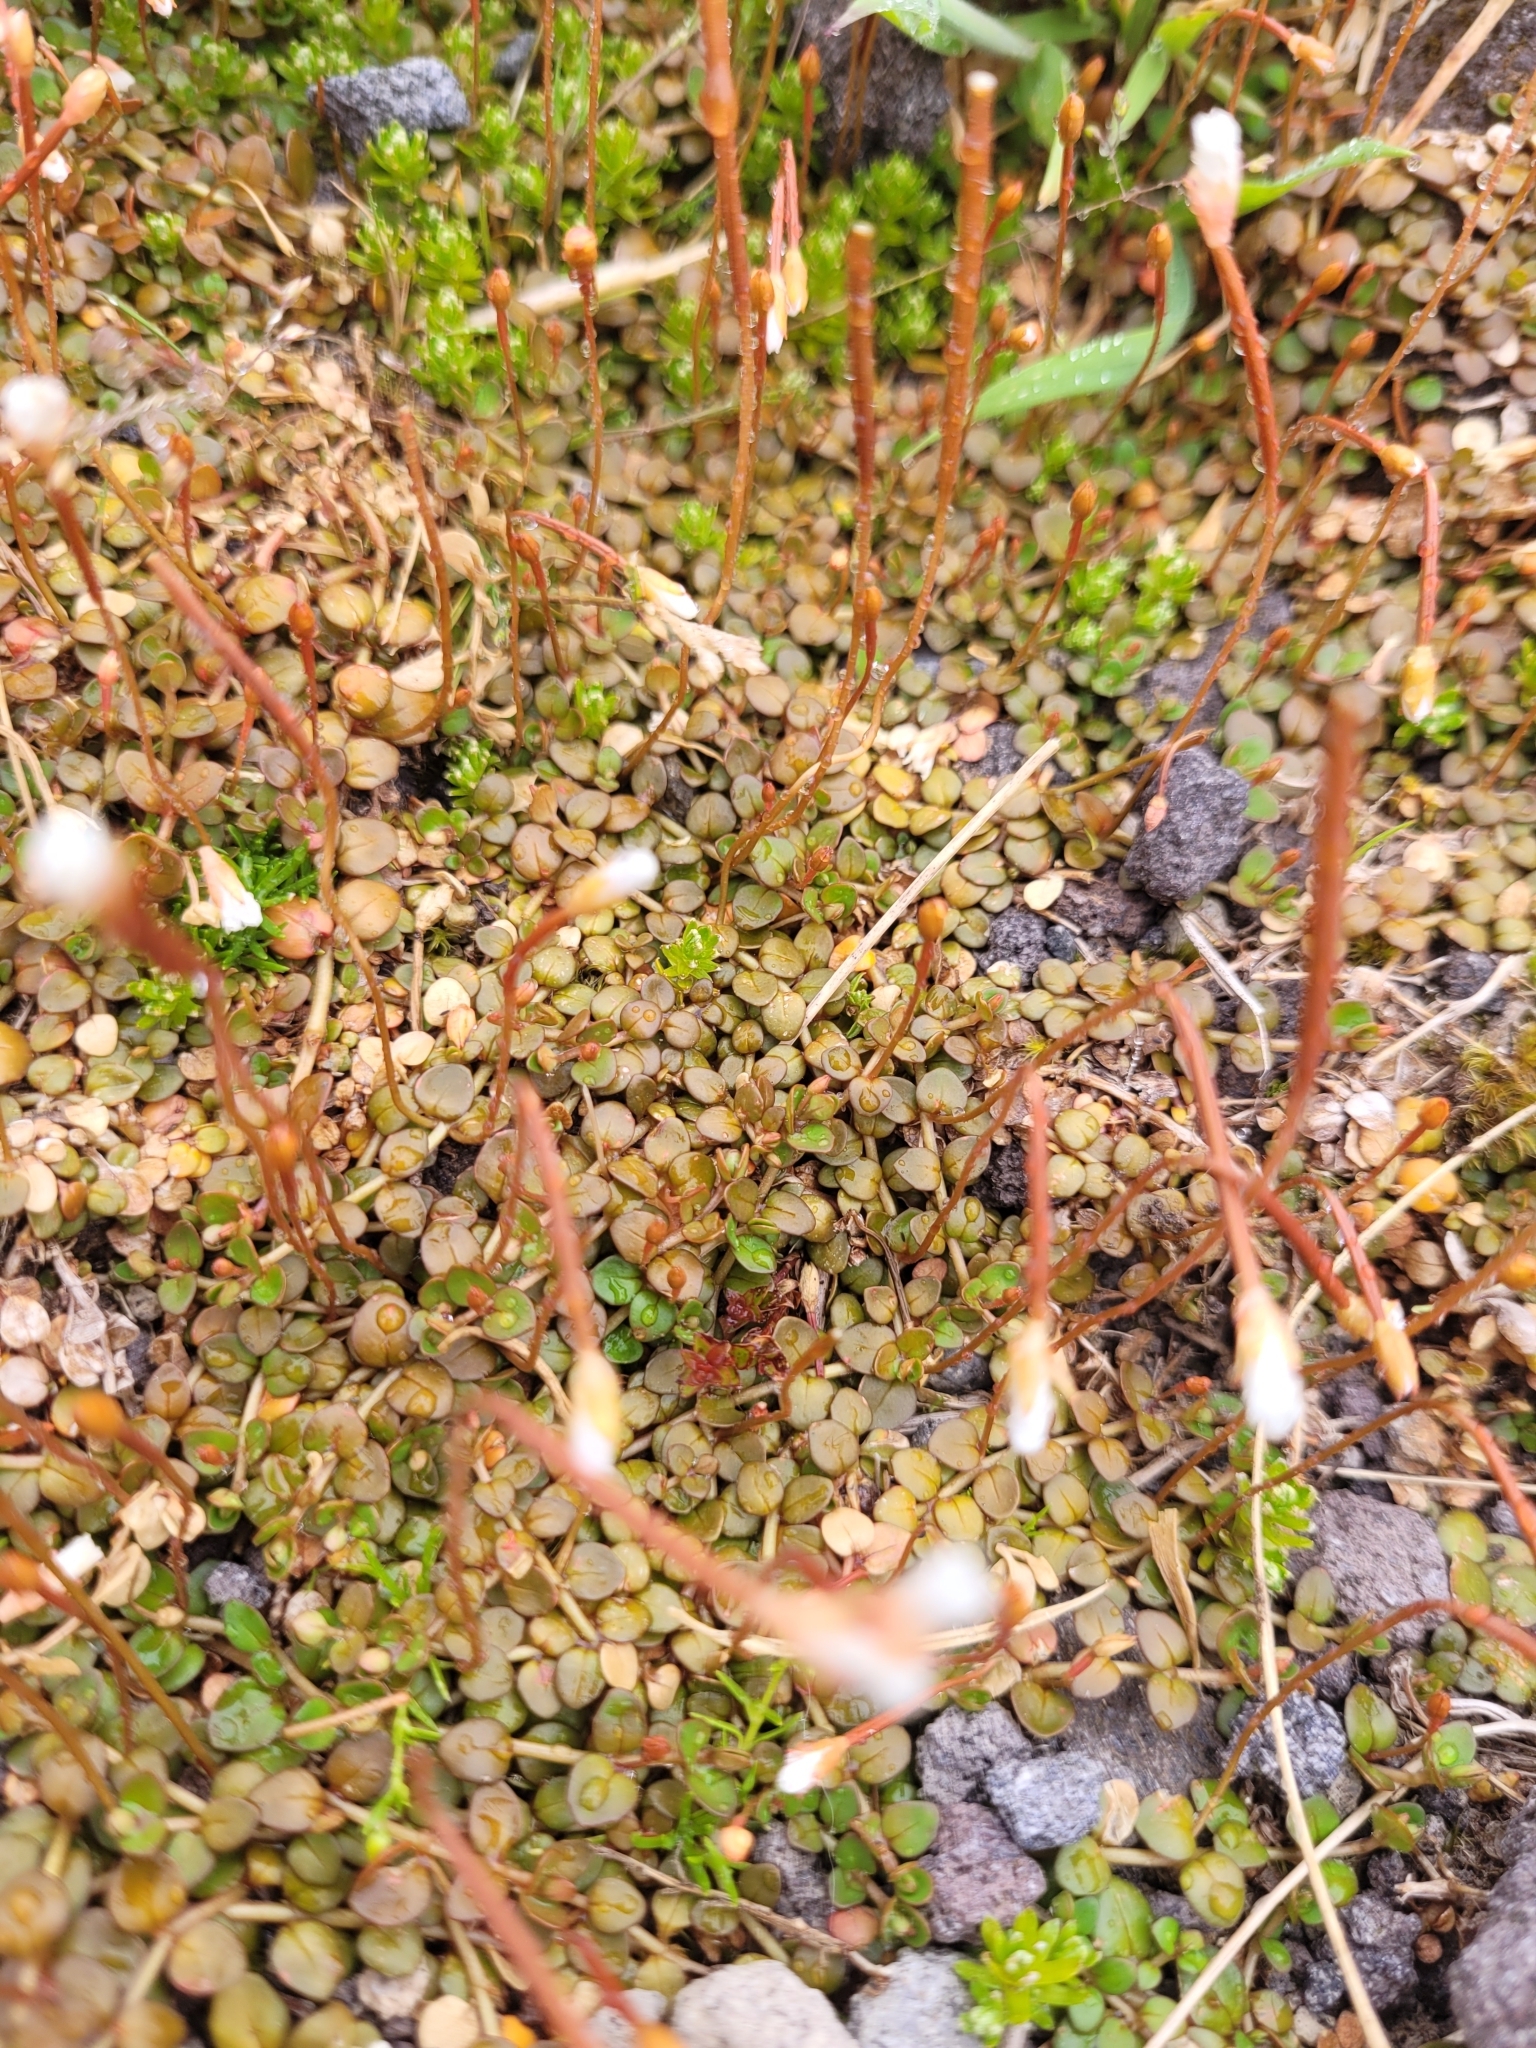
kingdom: Plantae
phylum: Tracheophyta
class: Magnoliopsida
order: Myrtales
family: Onagraceae
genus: Epilobium
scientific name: Epilobium brunnescens
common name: New zealand willowherb
